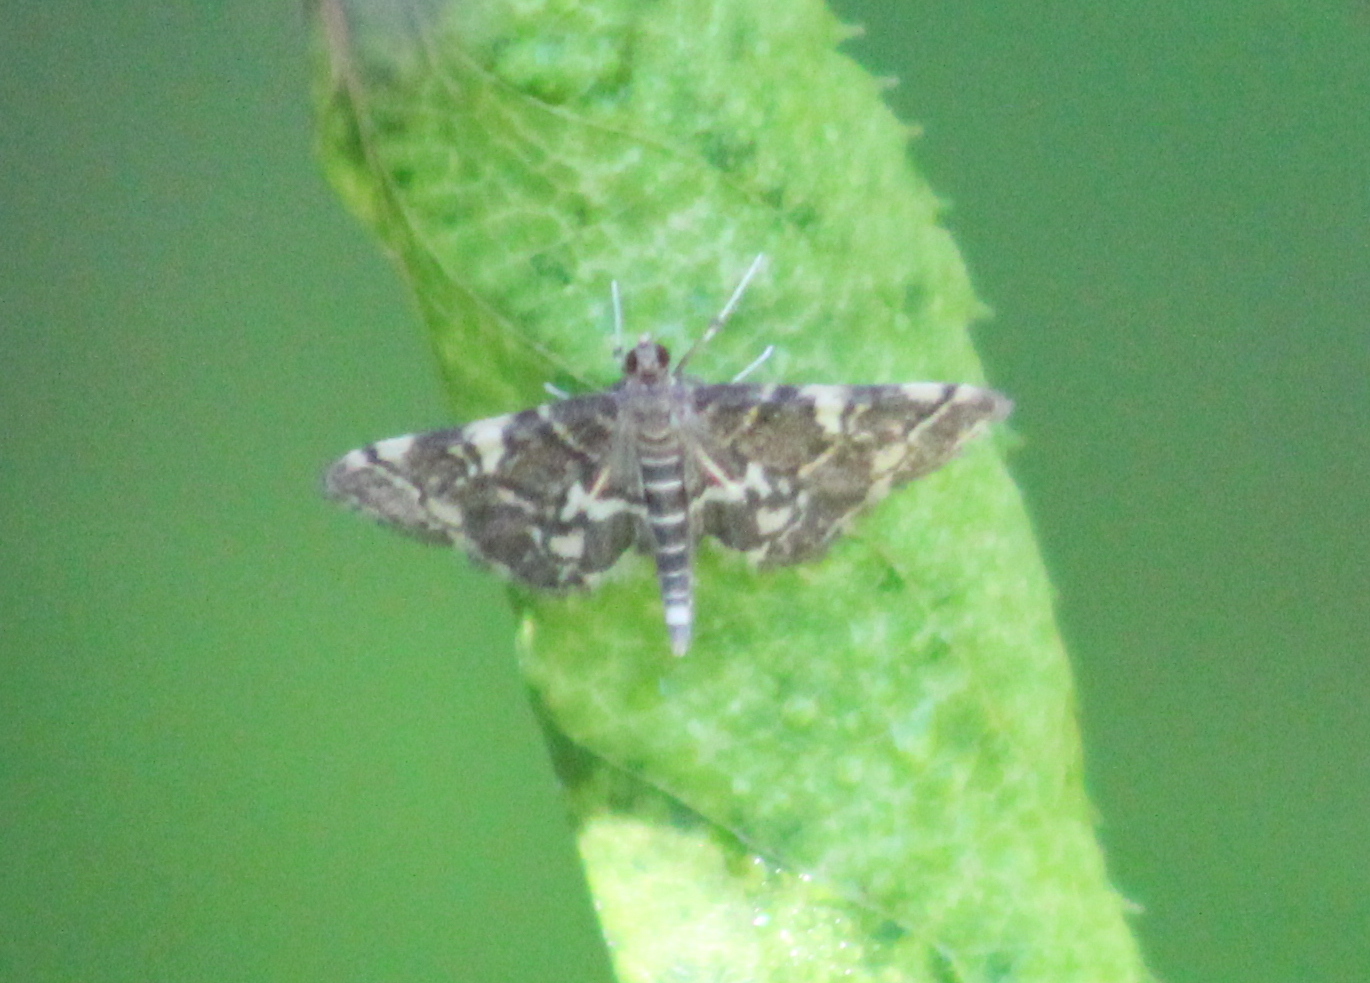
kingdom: Animalia
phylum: Arthropoda
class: Insecta
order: Lepidoptera
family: Crambidae
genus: Anageshna
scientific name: Anageshna primordialis
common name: Yellow-spotted webworm moth
